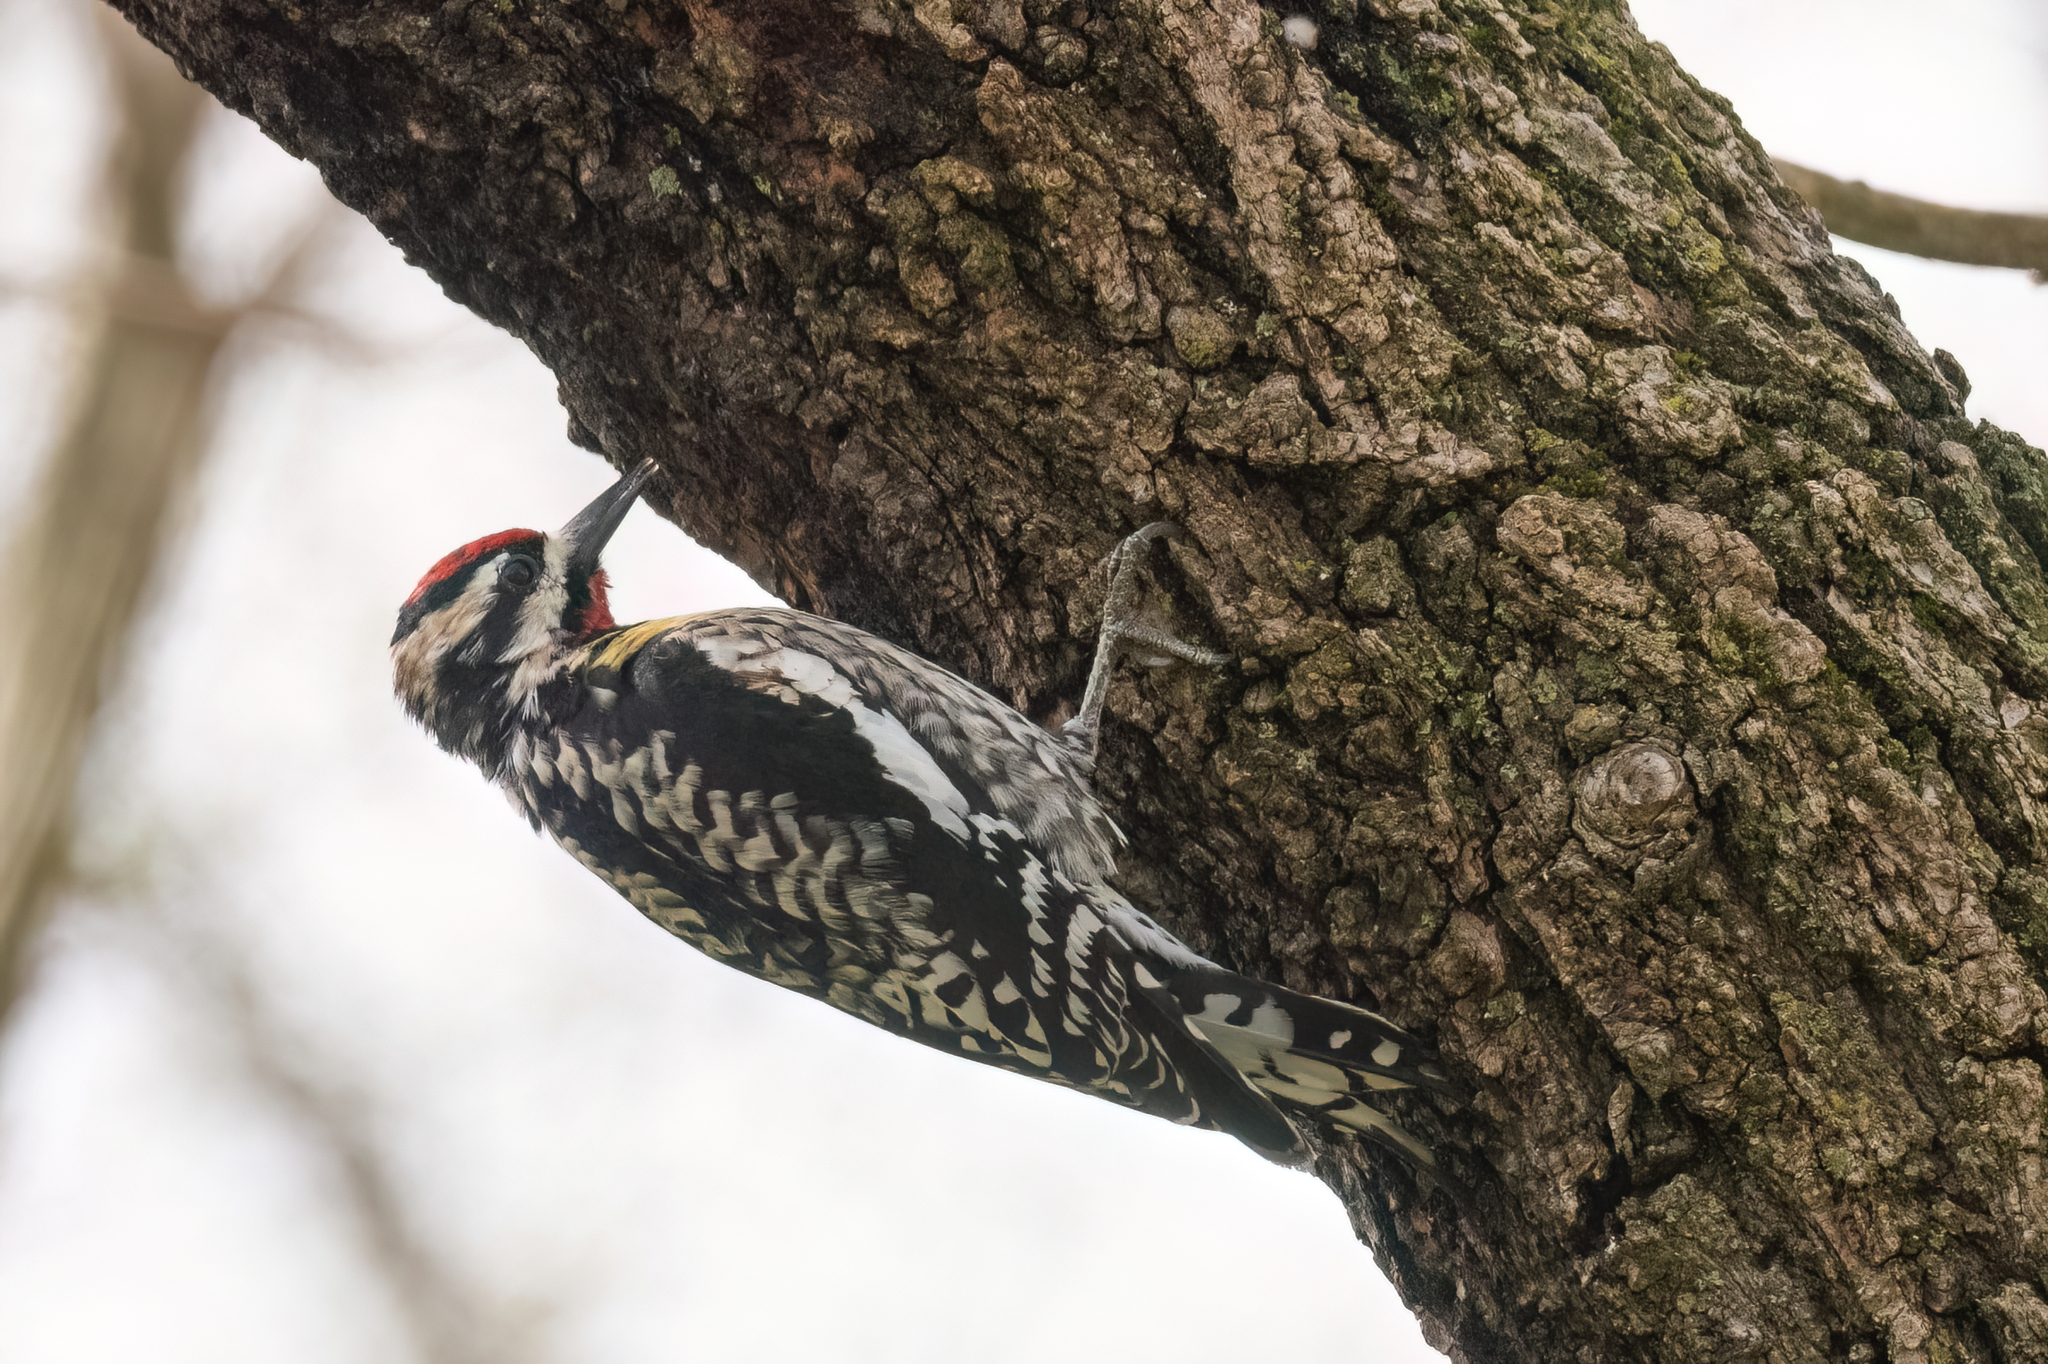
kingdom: Animalia
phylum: Chordata
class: Aves
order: Piciformes
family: Picidae
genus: Sphyrapicus
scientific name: Sphyrapicus varius
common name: Yellow-bellied sapsucker
